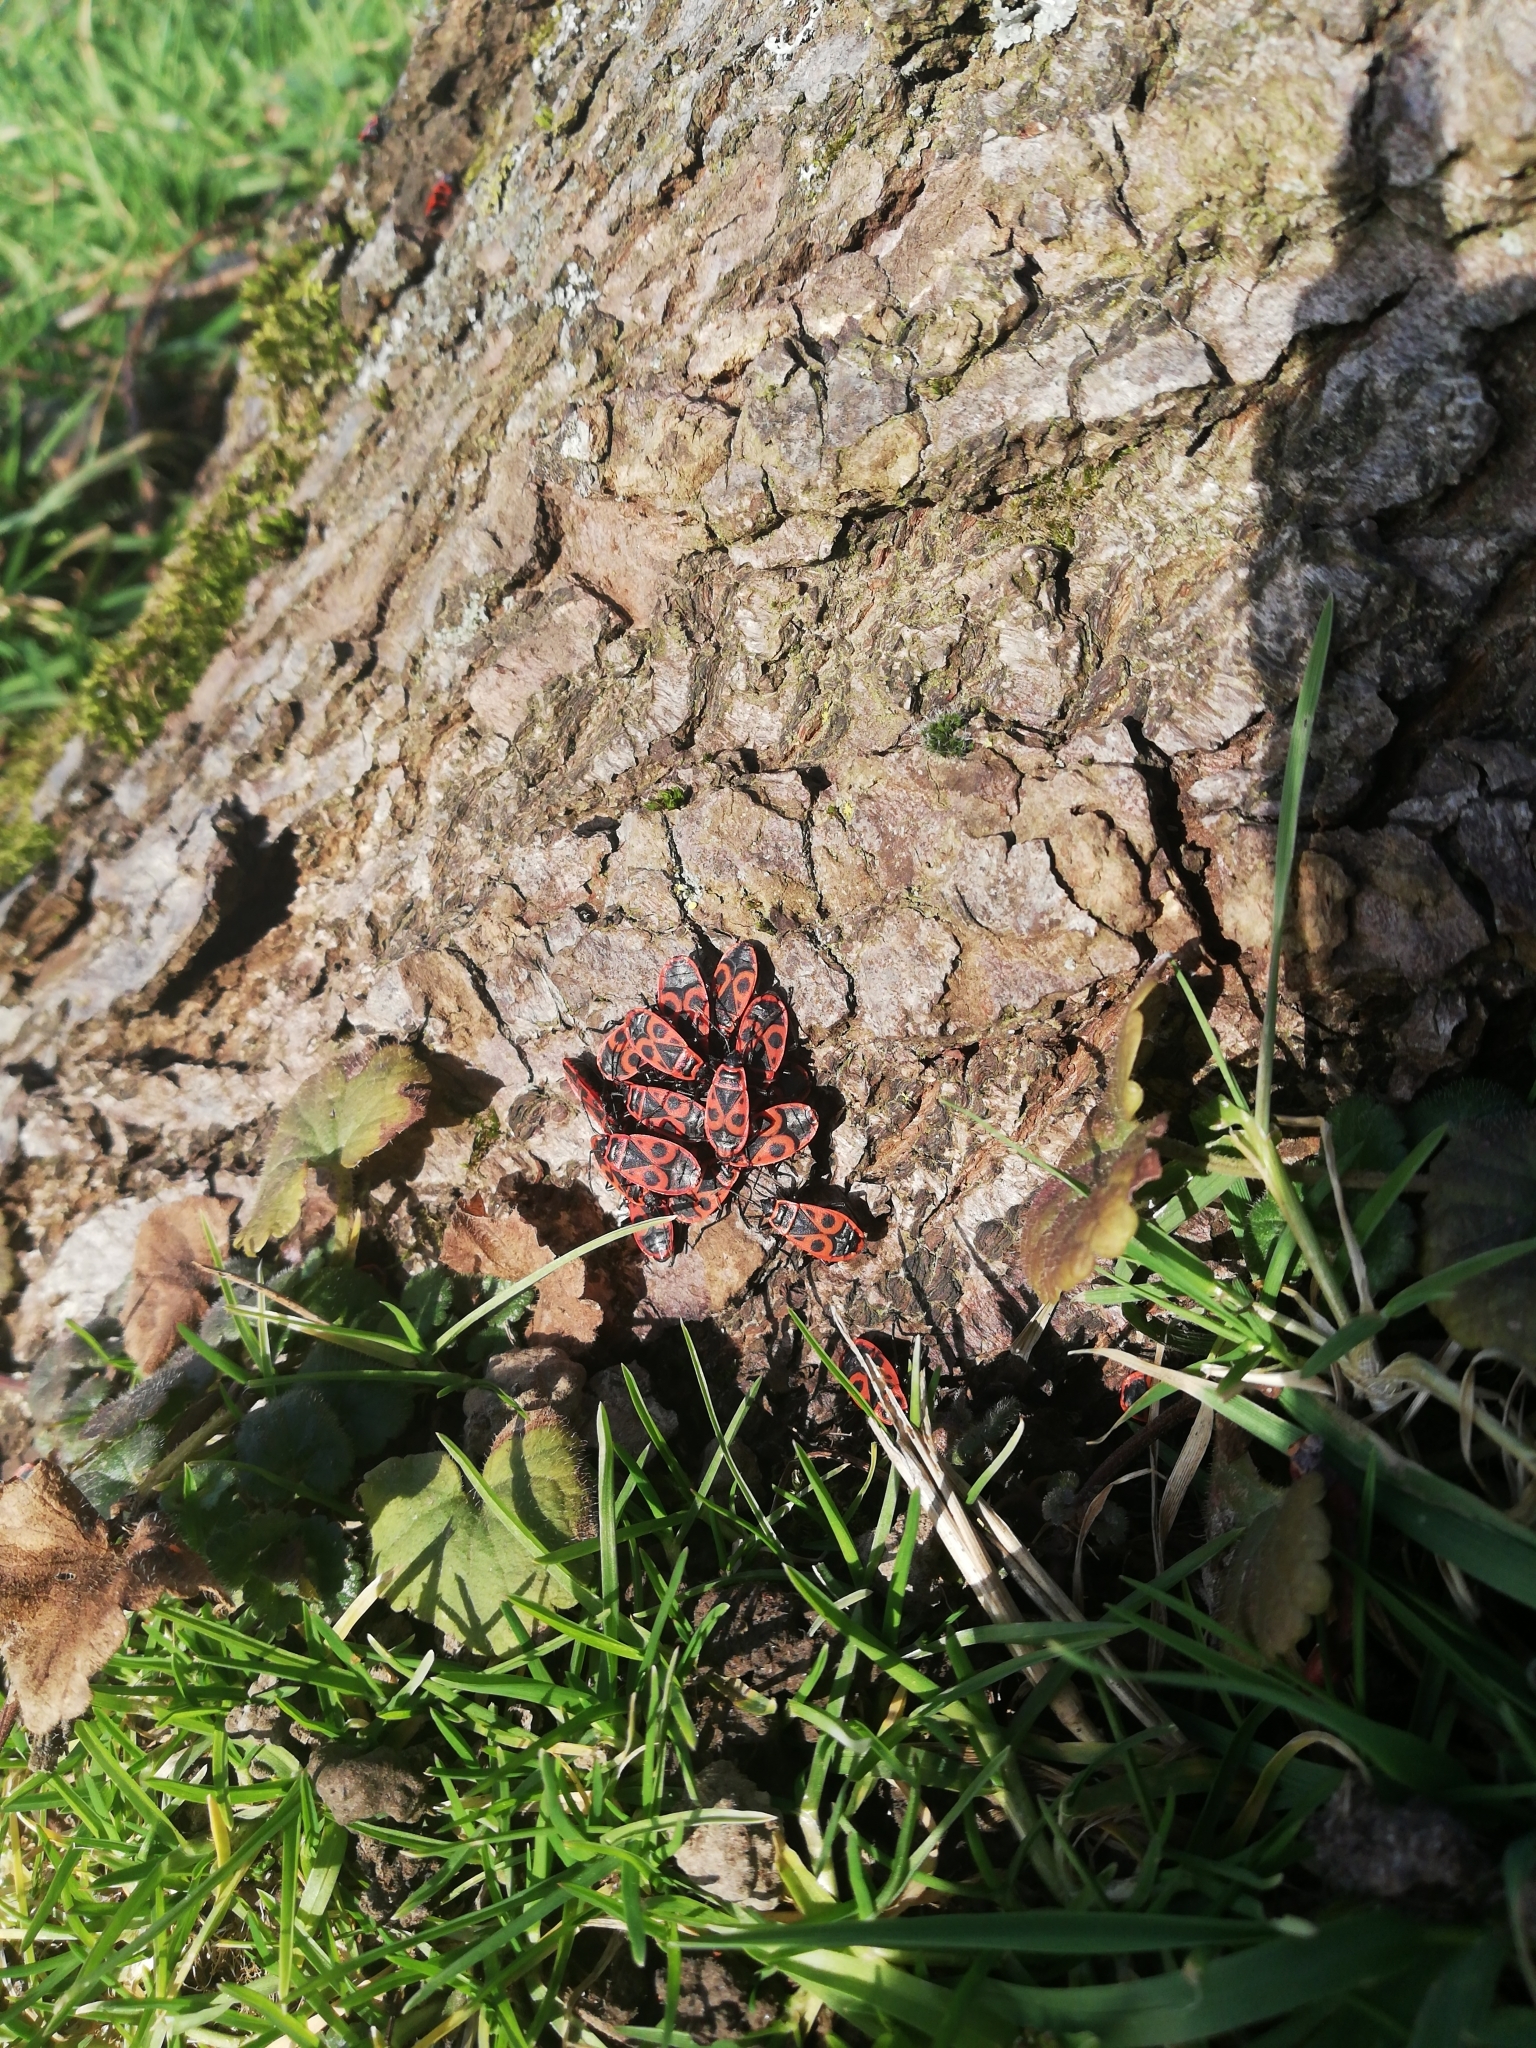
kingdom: Animalia
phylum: Arthropoda
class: Insecta
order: Hemiptera
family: Pyrrhocoridae
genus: Pyrrhocoris
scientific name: Pyrrhocoris apterus
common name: Firebug
